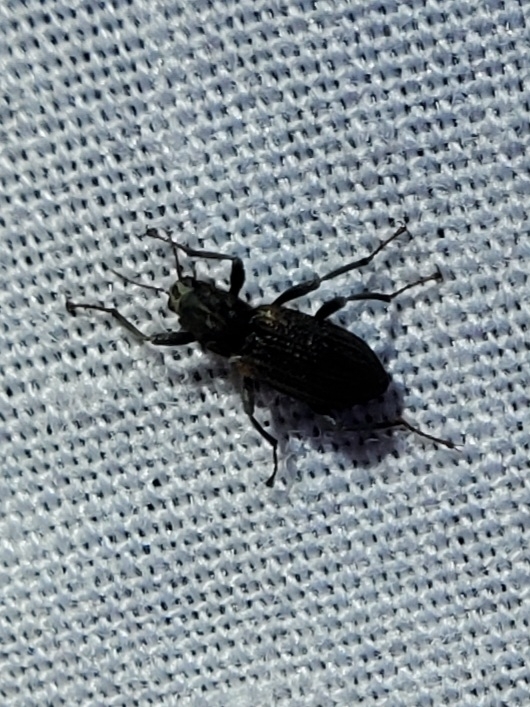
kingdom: Animalia
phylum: Arthropoda
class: Insecta
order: Coleoptera
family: Elmidae
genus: Stenelmis
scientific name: Stenelmis
